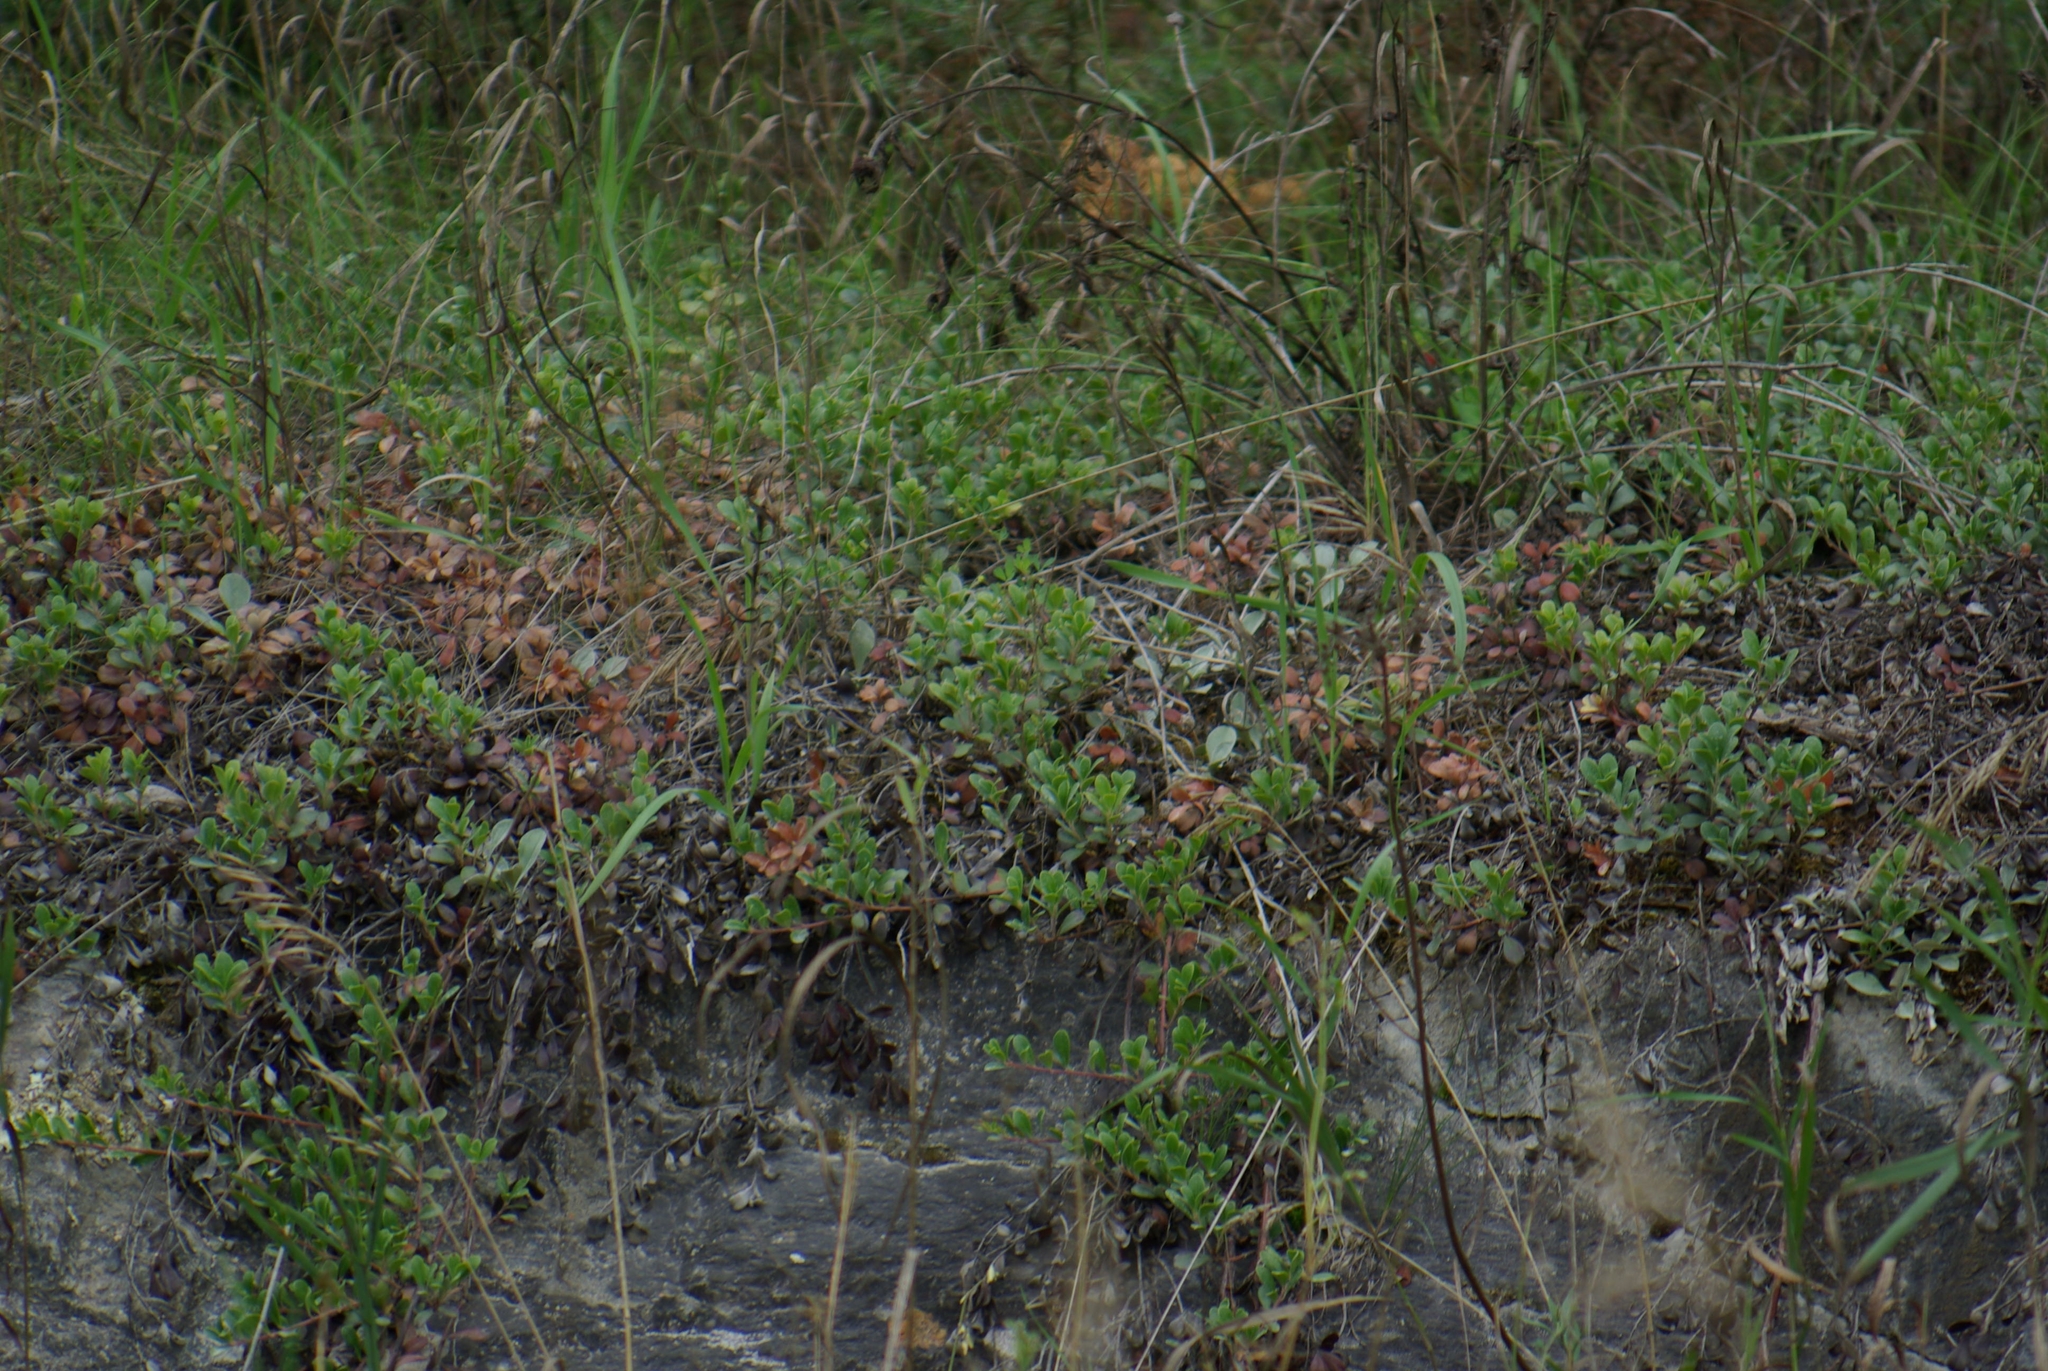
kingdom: Plantae
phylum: Tracheophyta
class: Magnoliopsida
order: Ericales
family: Ericaceae
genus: Arctostaphylos
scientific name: Arctostaphylos uva-ursi
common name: Bearberry
